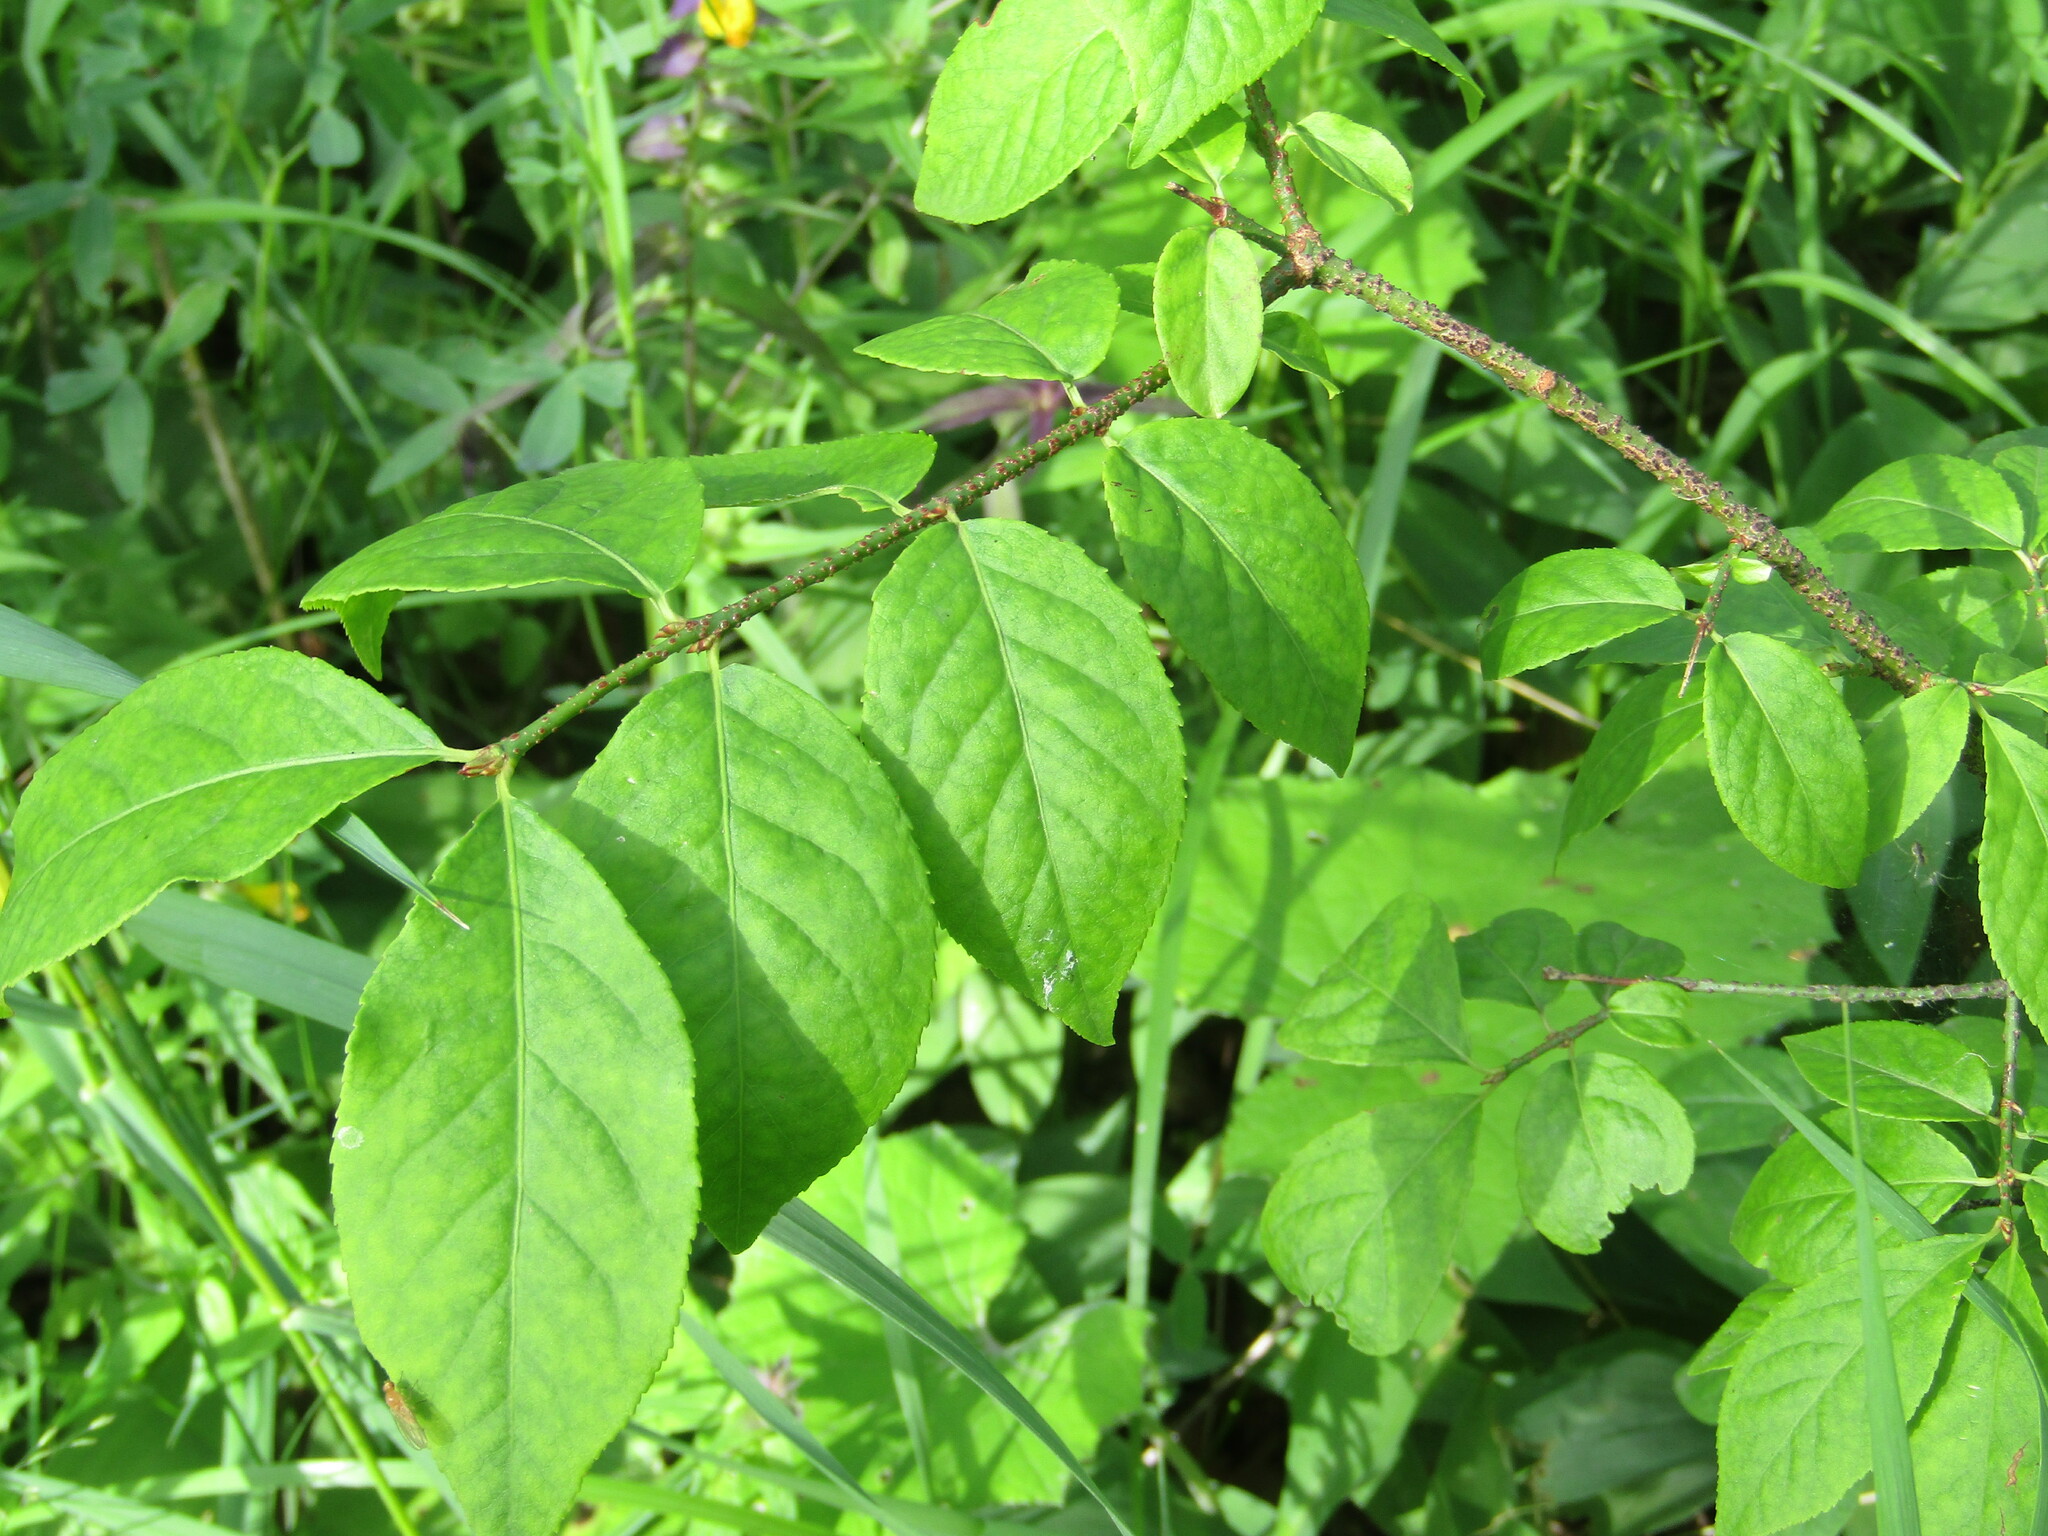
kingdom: Plantae
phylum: Tracheophyta
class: Magnoliopsida
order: Celastrales
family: Celastraceae
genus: Euonymus
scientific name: Euonymus verrucosus
